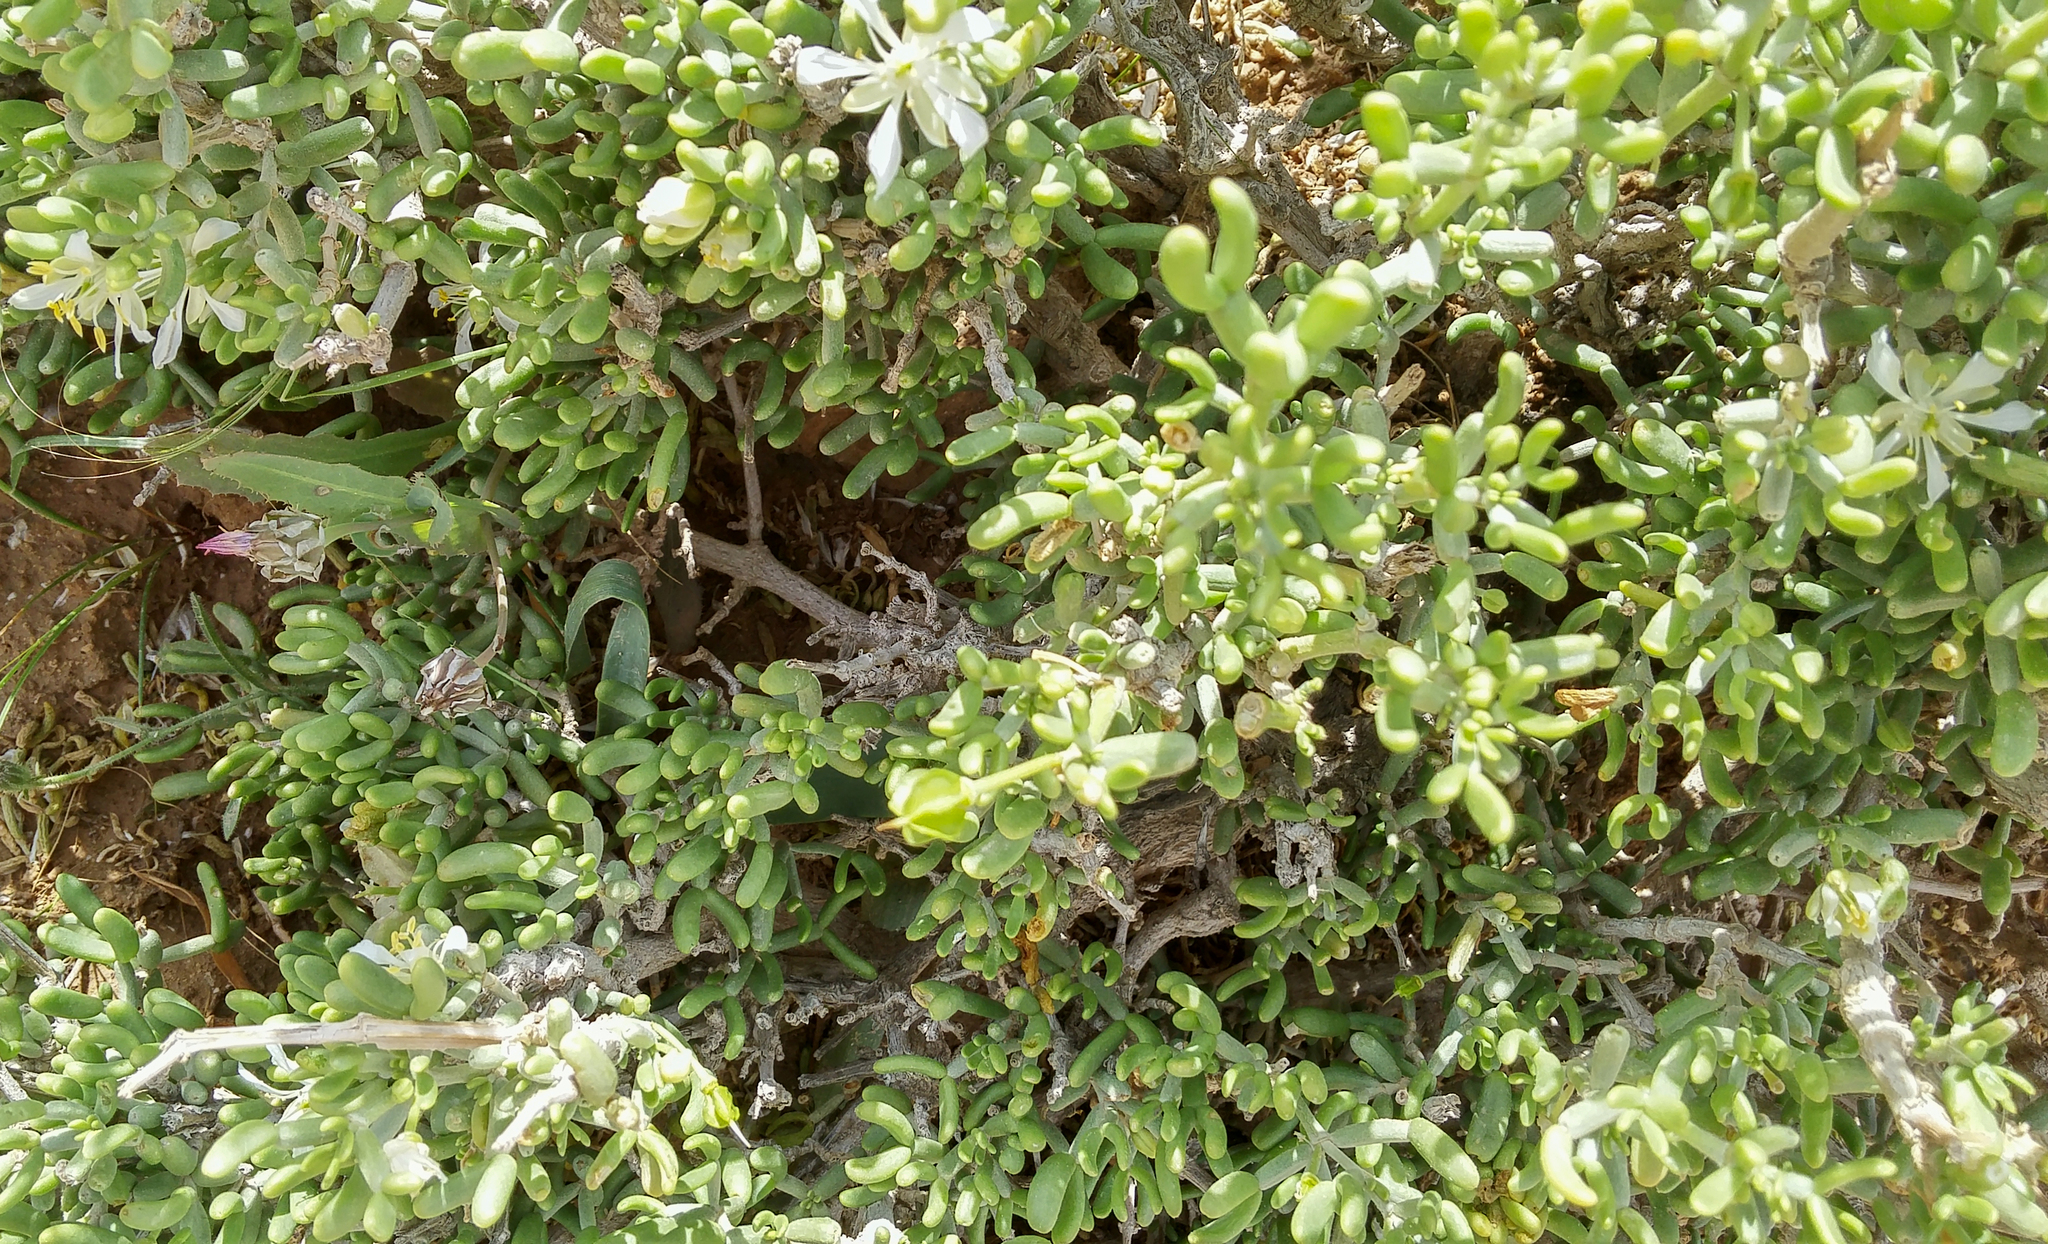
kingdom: Plantae
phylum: Tracheophyta
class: Magnoliopsida
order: Zygophyllales
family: Zygophyllaceae
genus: Tetraena
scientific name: Tetraena dumosa
